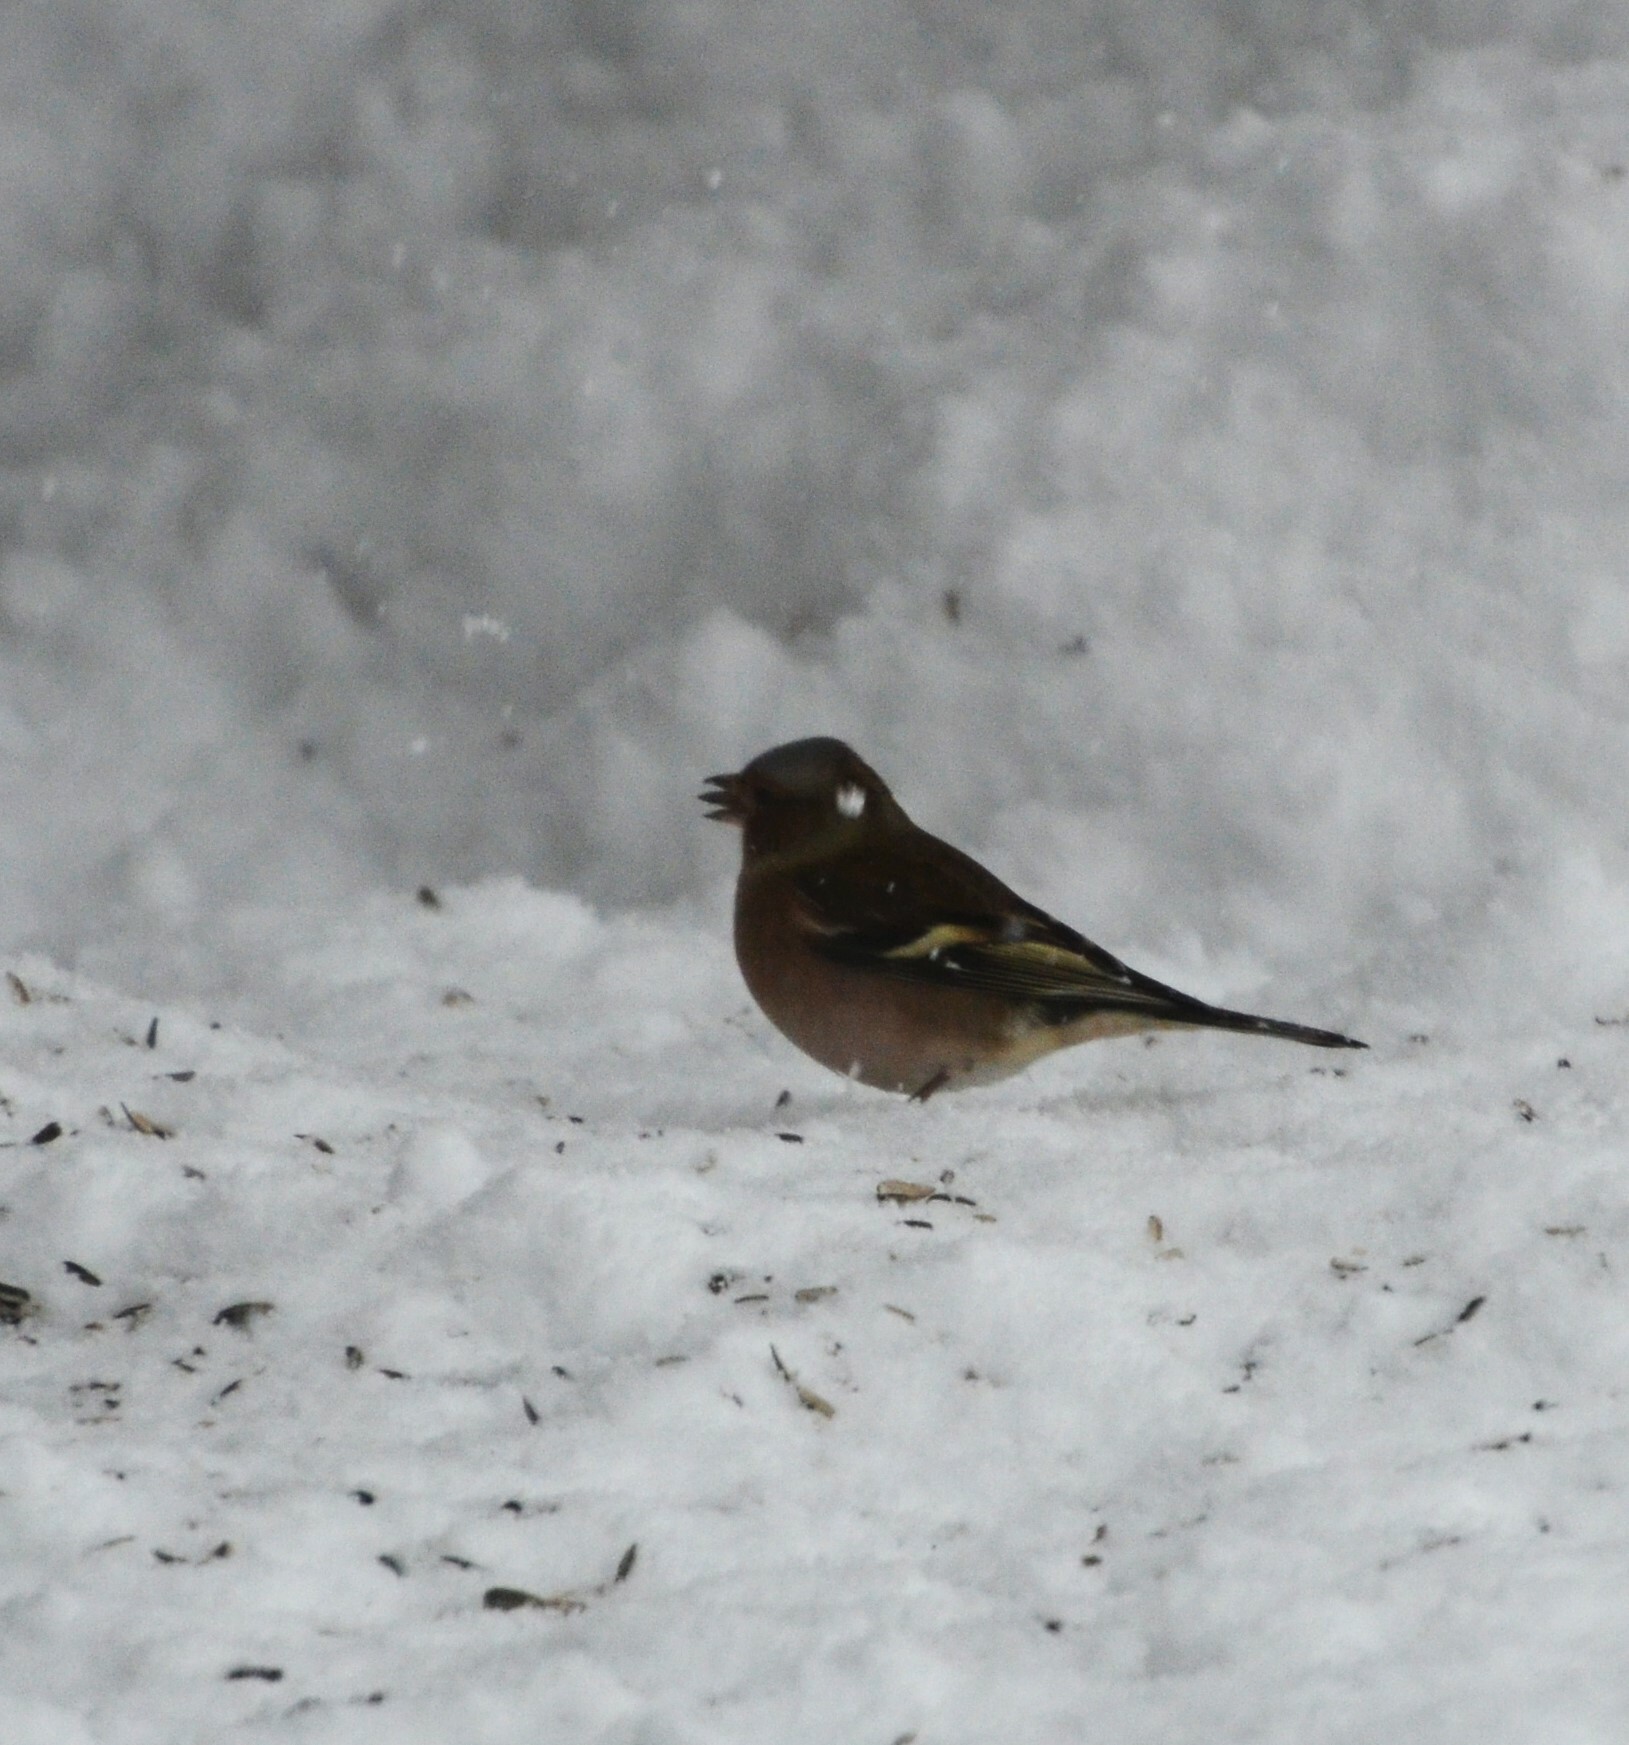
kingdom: Animalia
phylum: Chordata
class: Aves
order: Passeriformes
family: Fringillidae
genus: Fringilla
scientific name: Fringilla coelebs
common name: Common chaffinch
